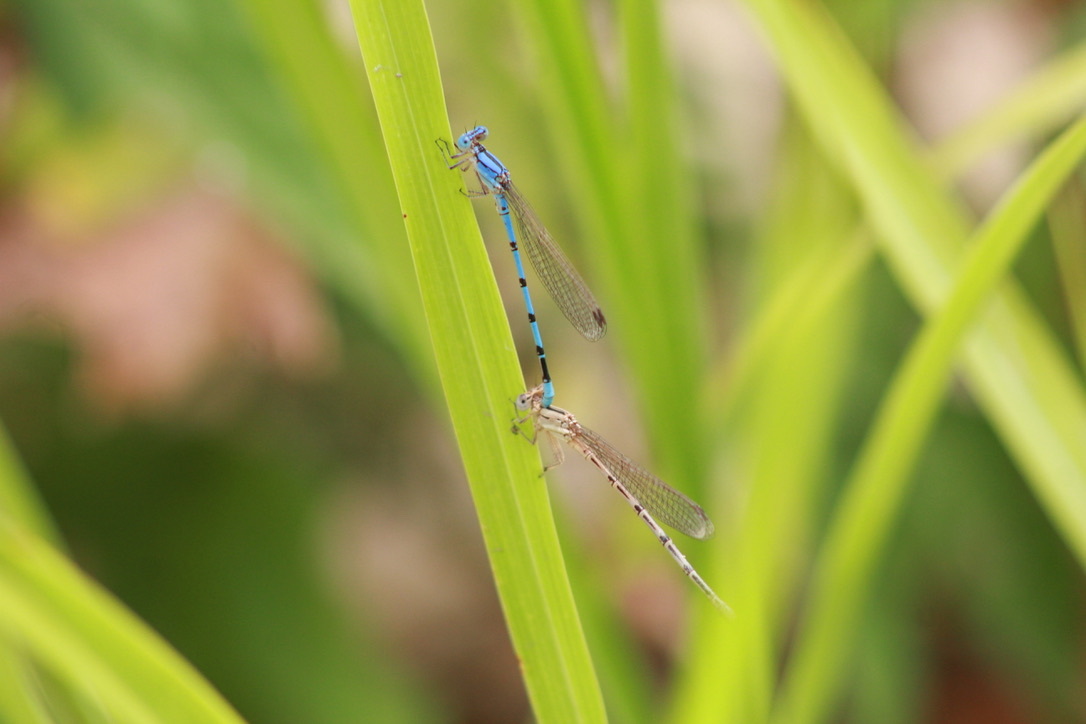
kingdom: Animalia
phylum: Arthropoda
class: Insecta
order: Odonata
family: Coenagrionidae
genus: Argia
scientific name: Argia nahuana
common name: Aztec dancer
